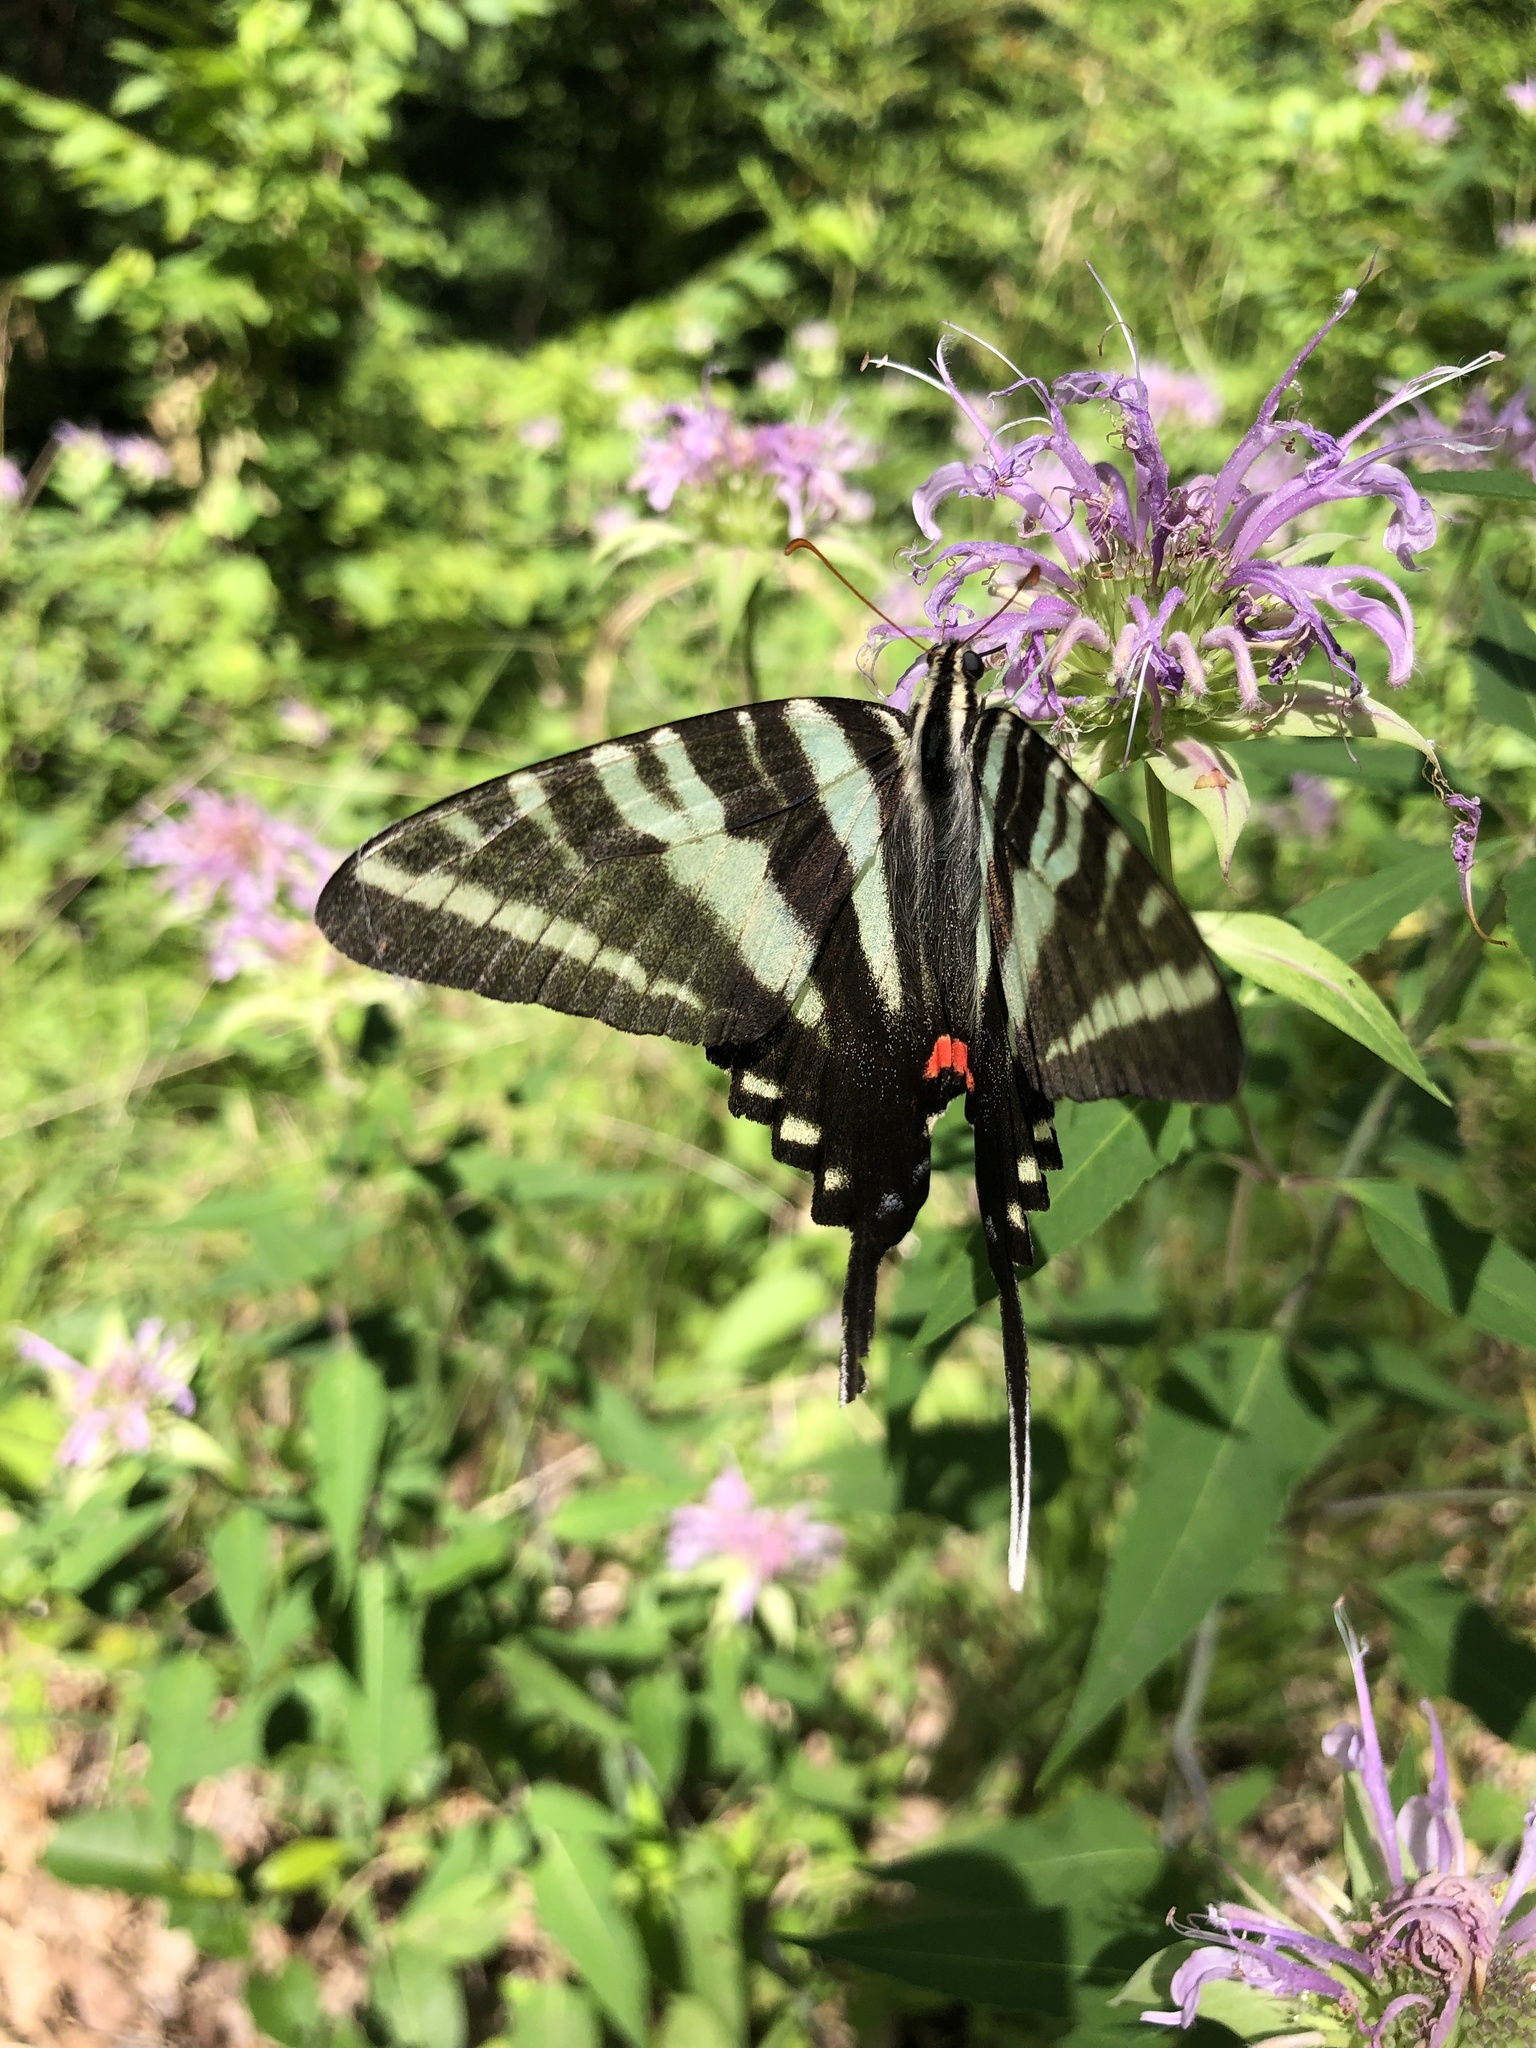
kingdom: Animalia
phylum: Arthropoda
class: Insecta
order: Lepidoptera
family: Papilionidae
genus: Protographium
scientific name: Protographium marcellus
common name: Zebra swallowtail
